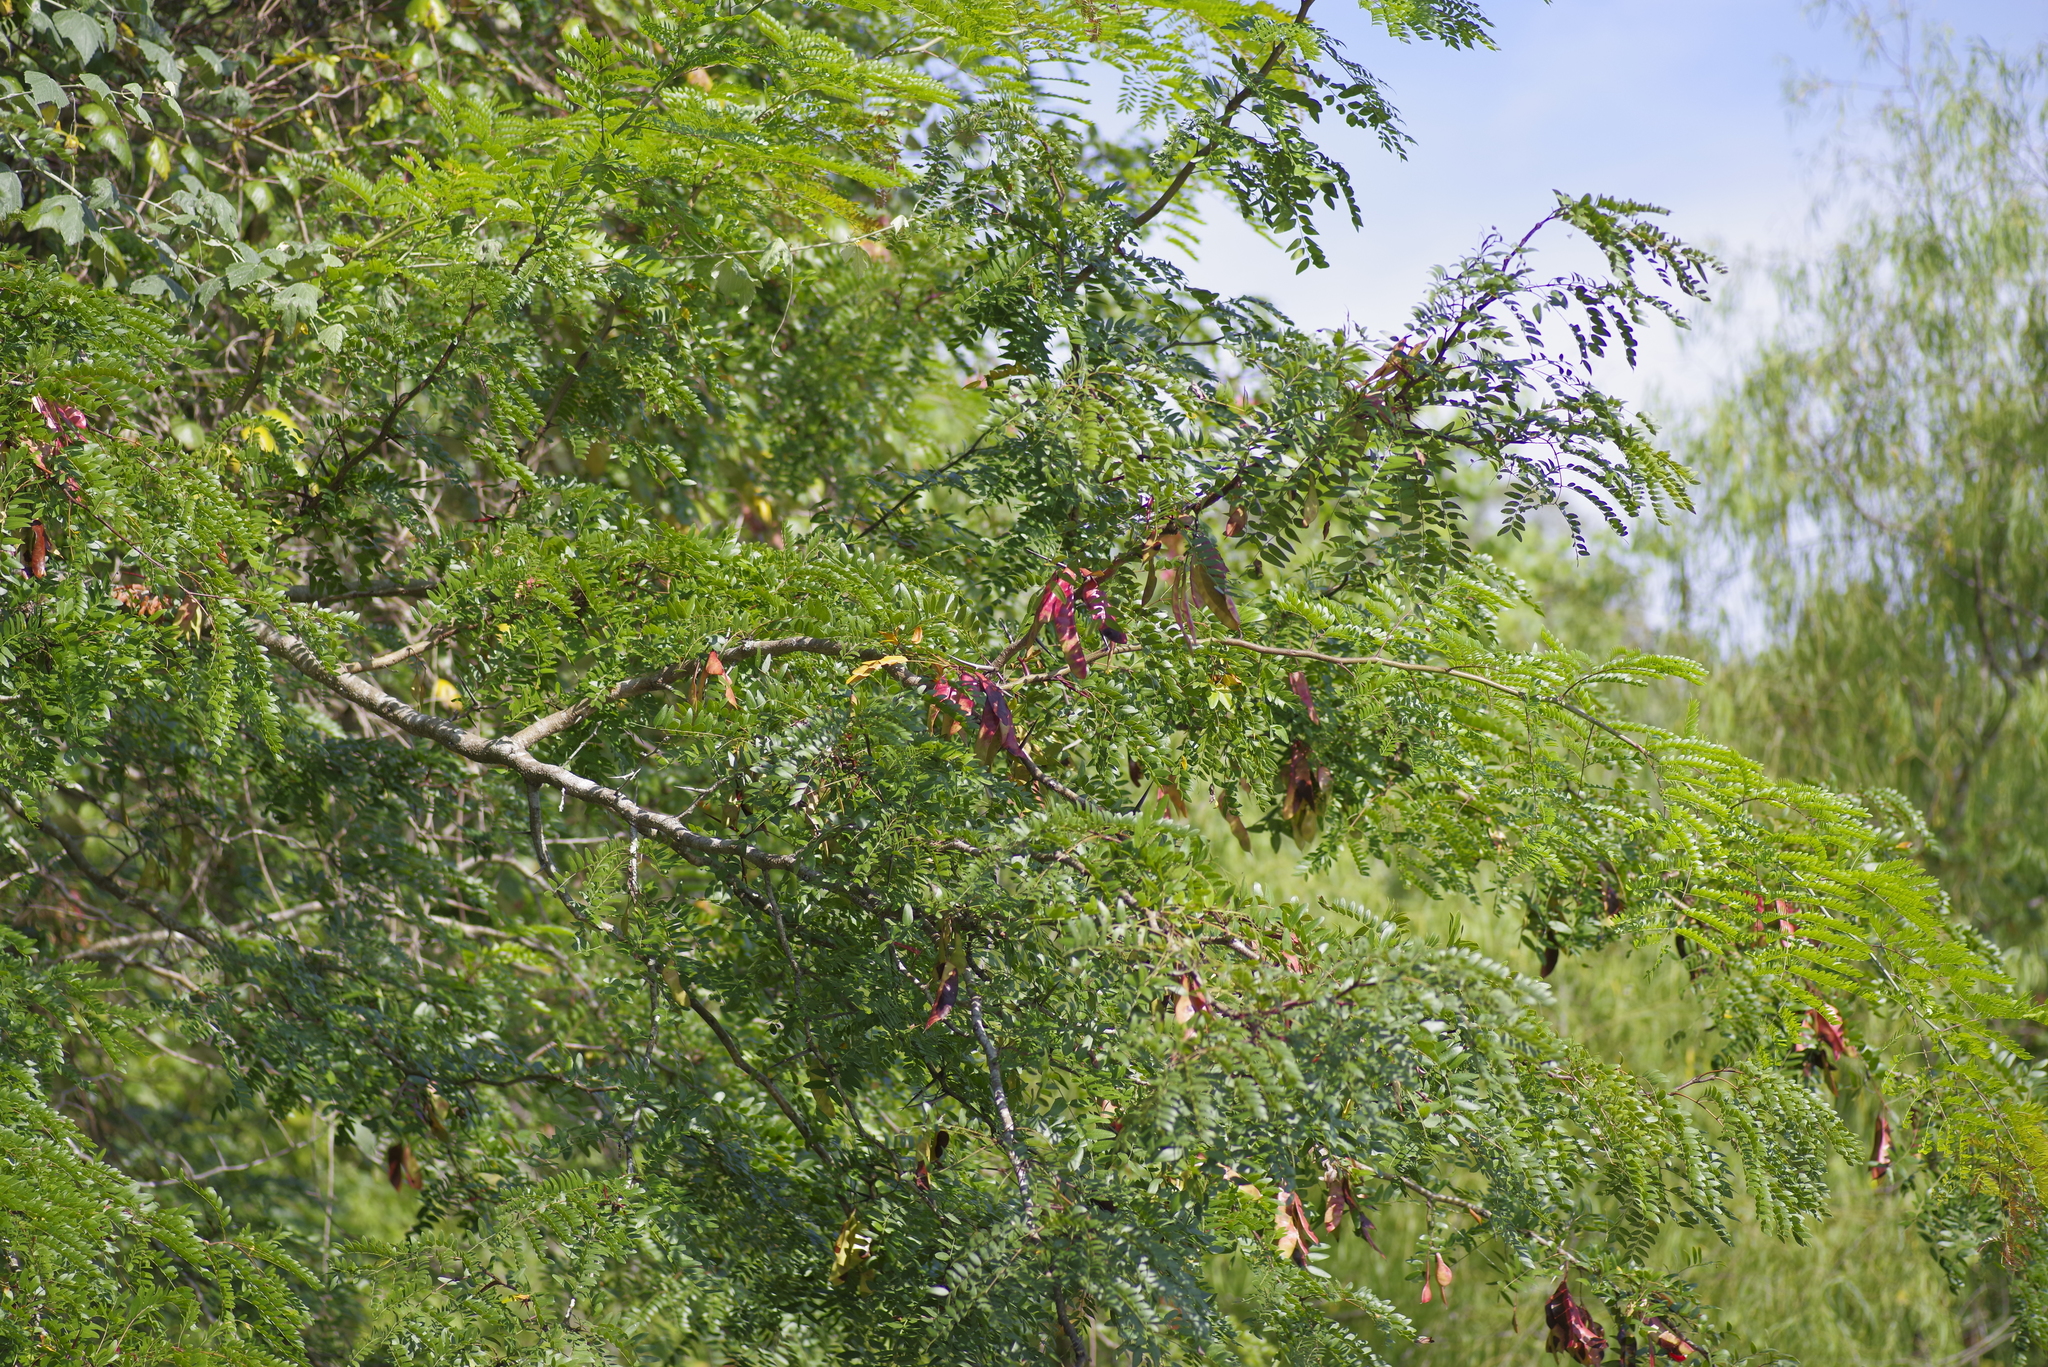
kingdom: Plantae
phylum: Tracheophyta
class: Magnoliopsida
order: Fabales
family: Fabaceae
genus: Gleditsia
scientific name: Gleditsia triacanthos
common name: Common honeylocust
